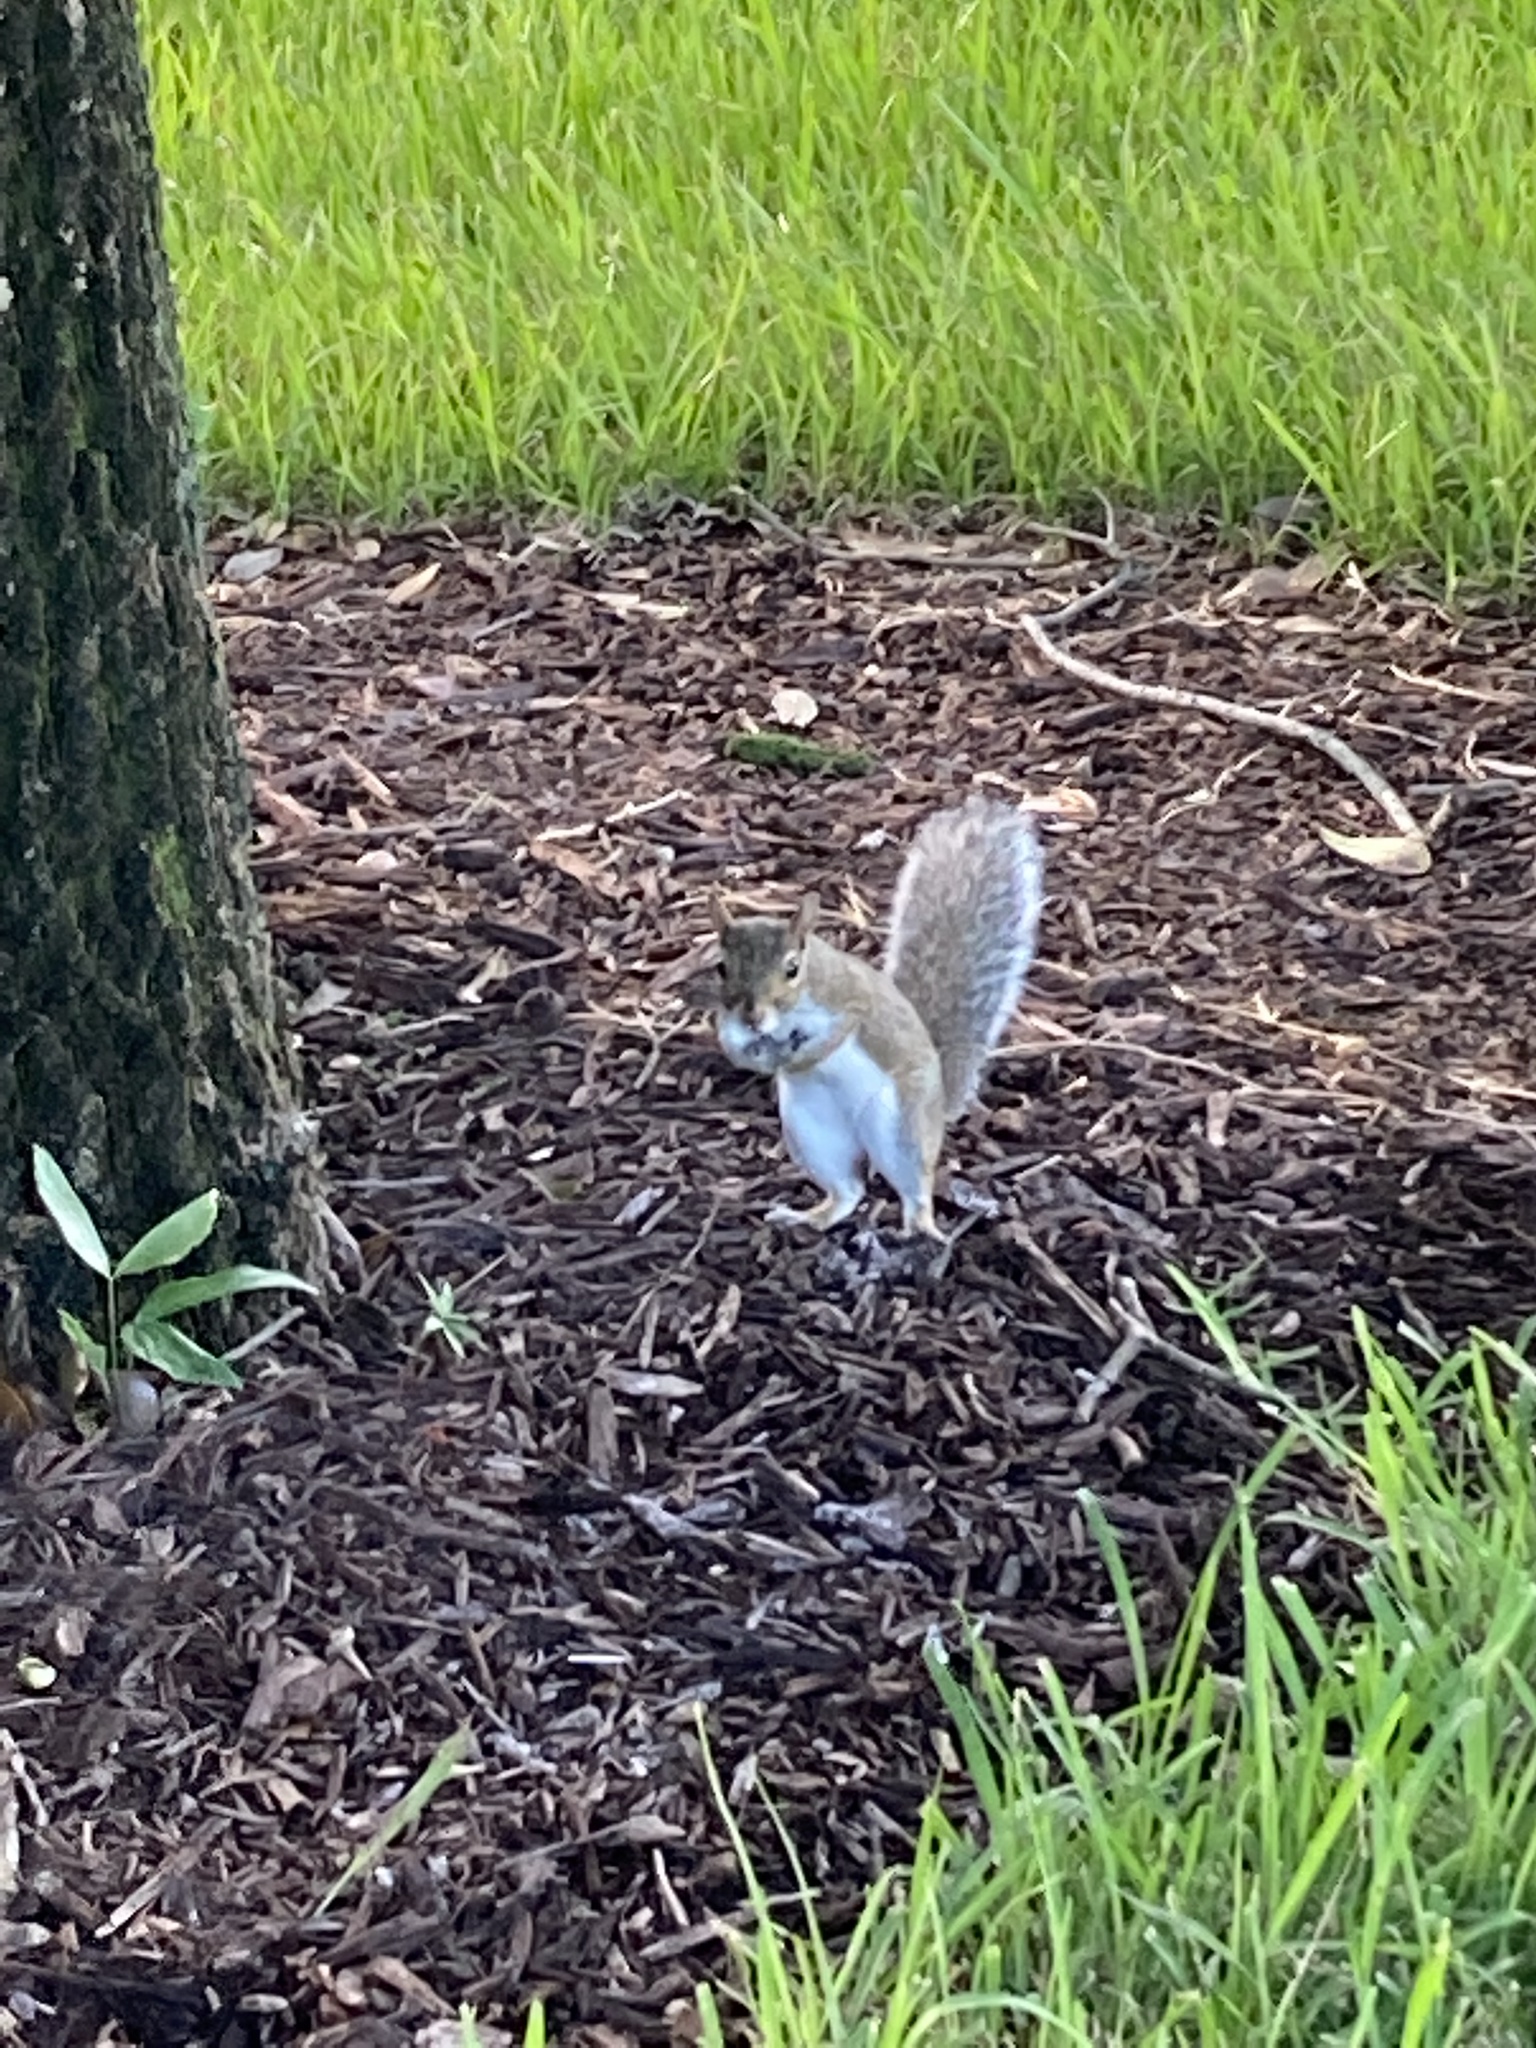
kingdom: Animalia
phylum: Chordata
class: Mammalia
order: Rodentia
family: Sciuridae
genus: Sciurus
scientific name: Sciurus carolinensis
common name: Eastern gray squirrel
